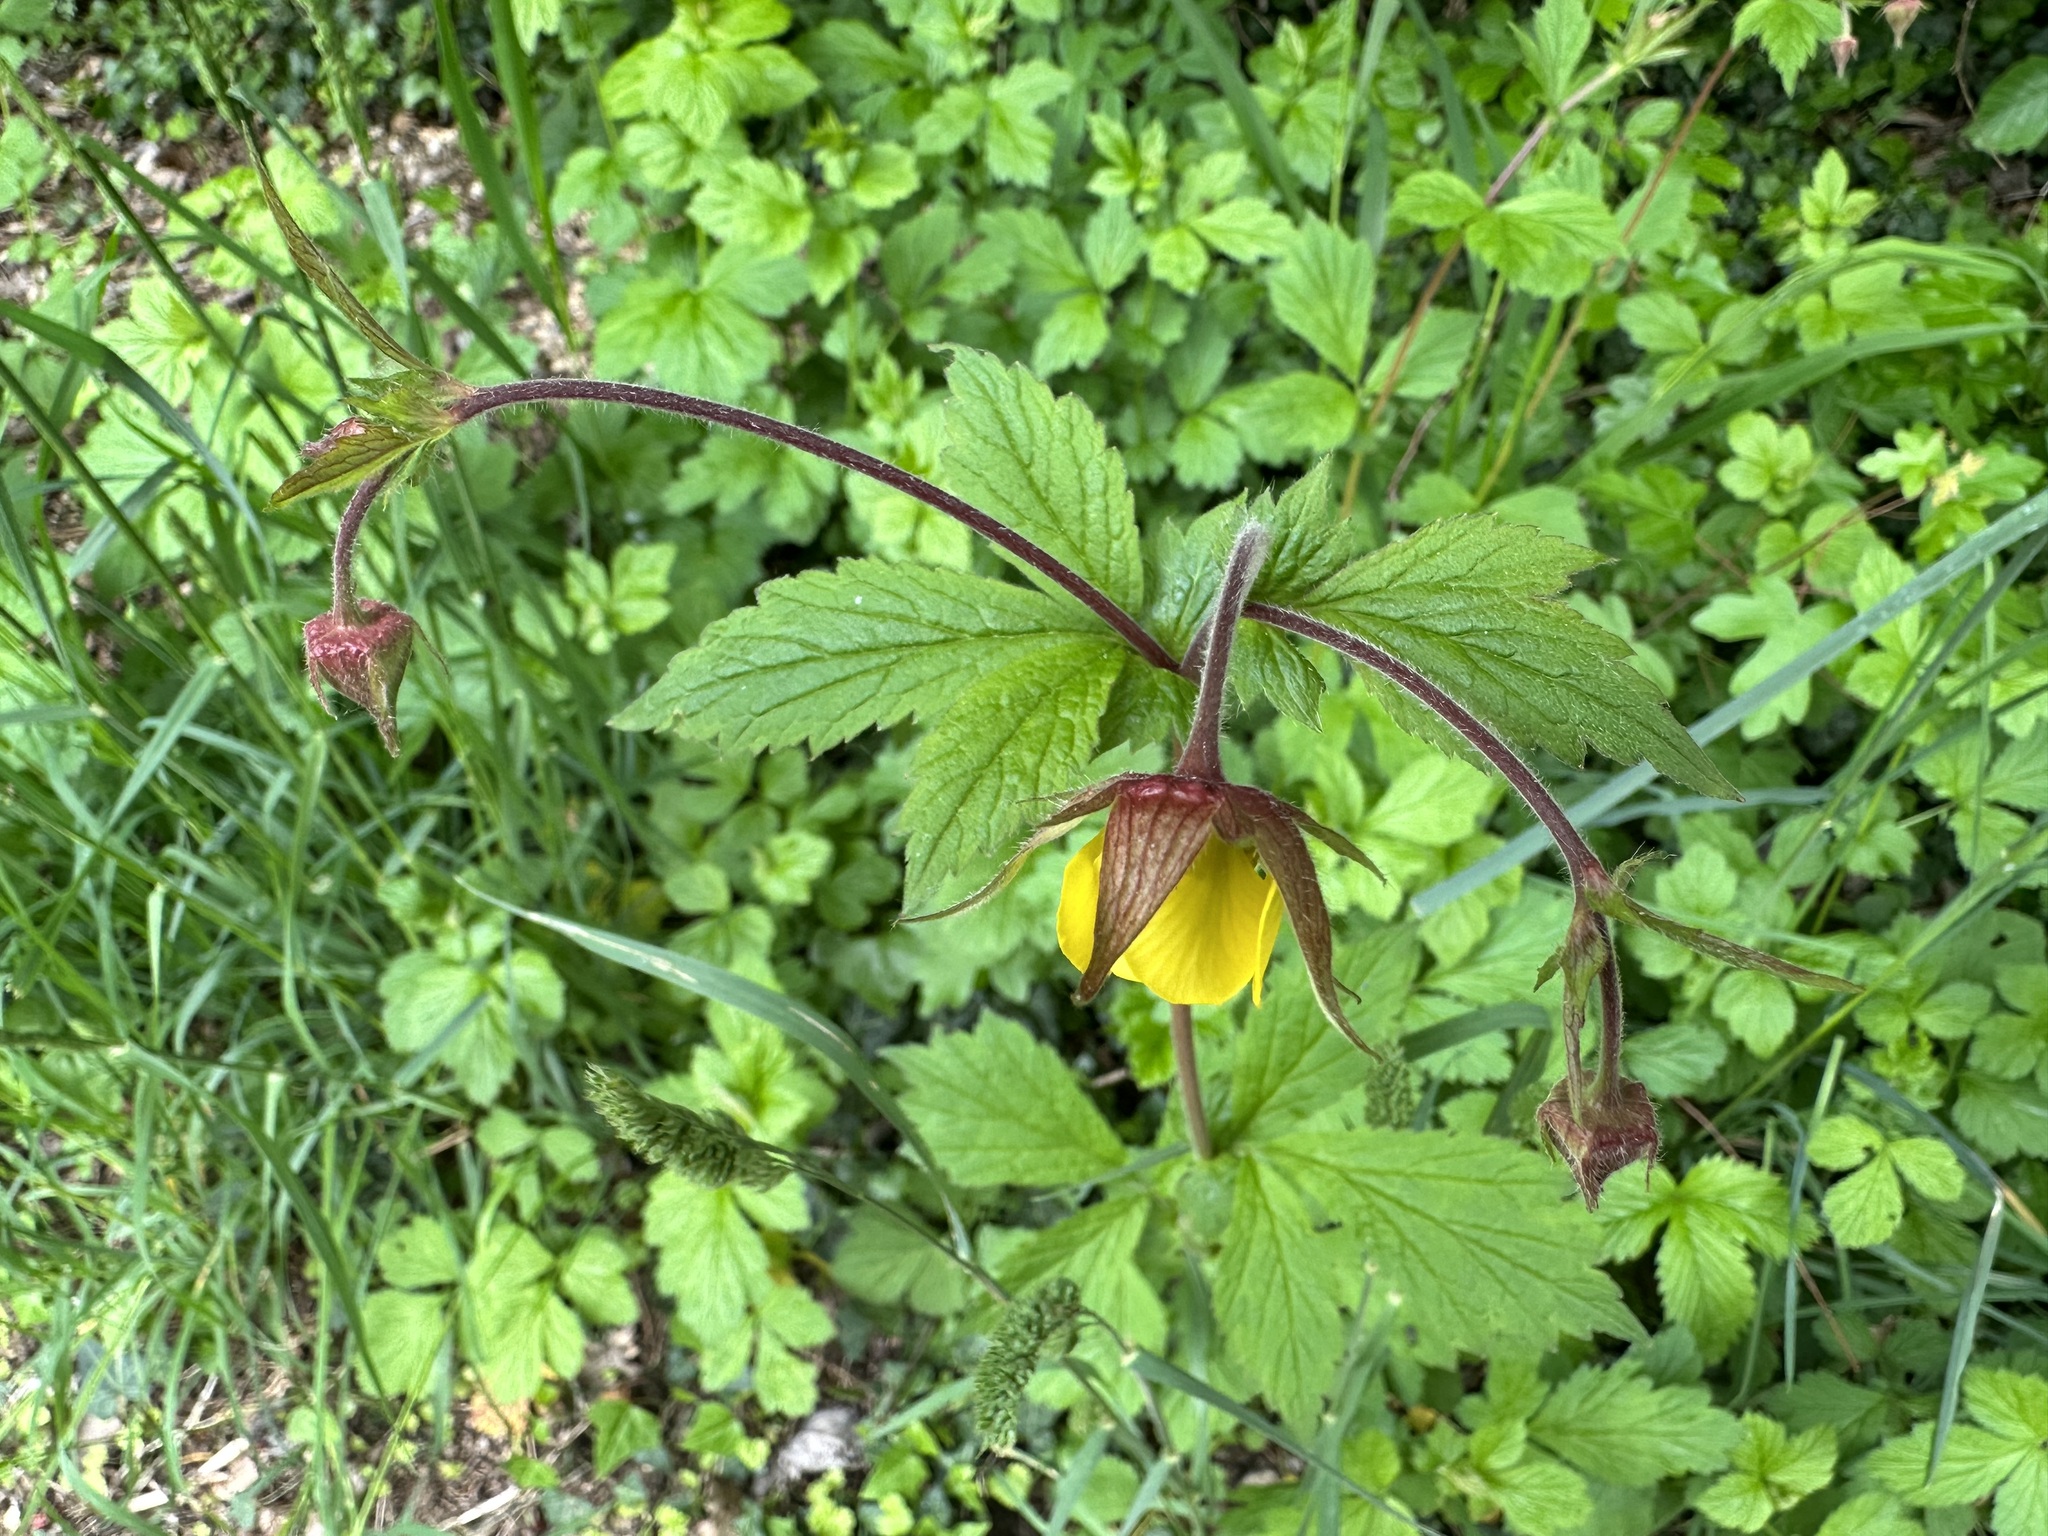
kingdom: Plantae
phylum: Tracheophyta
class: Magnoliopsida
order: Rosales
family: Rosaceae
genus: Geum
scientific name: Geum rivale
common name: Water avens
